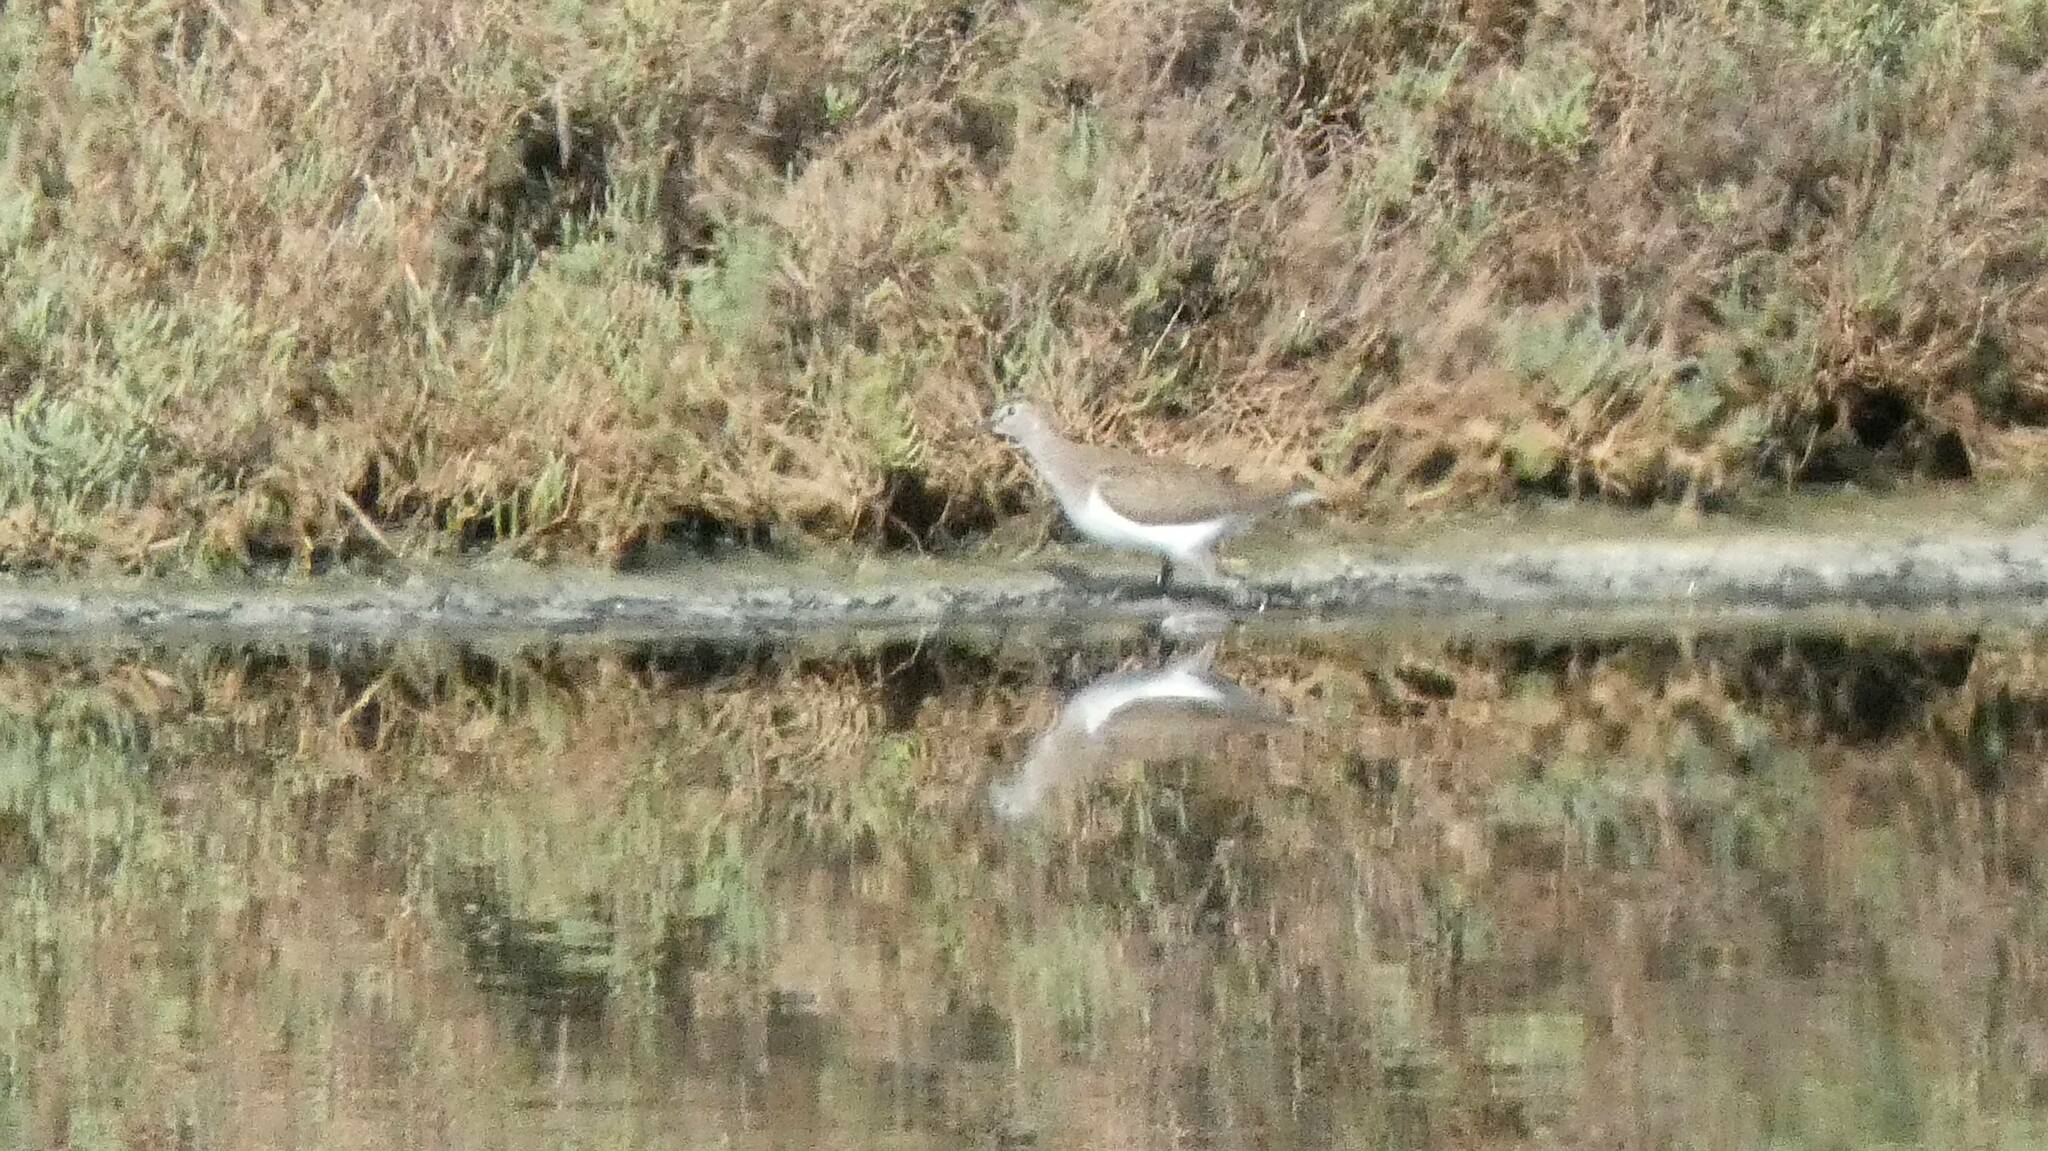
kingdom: Animalia
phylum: Chordata
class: Aves
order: Charadriiformes
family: Scolopacidae
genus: Tringa
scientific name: Tringa ochropus
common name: Green sandpiper
